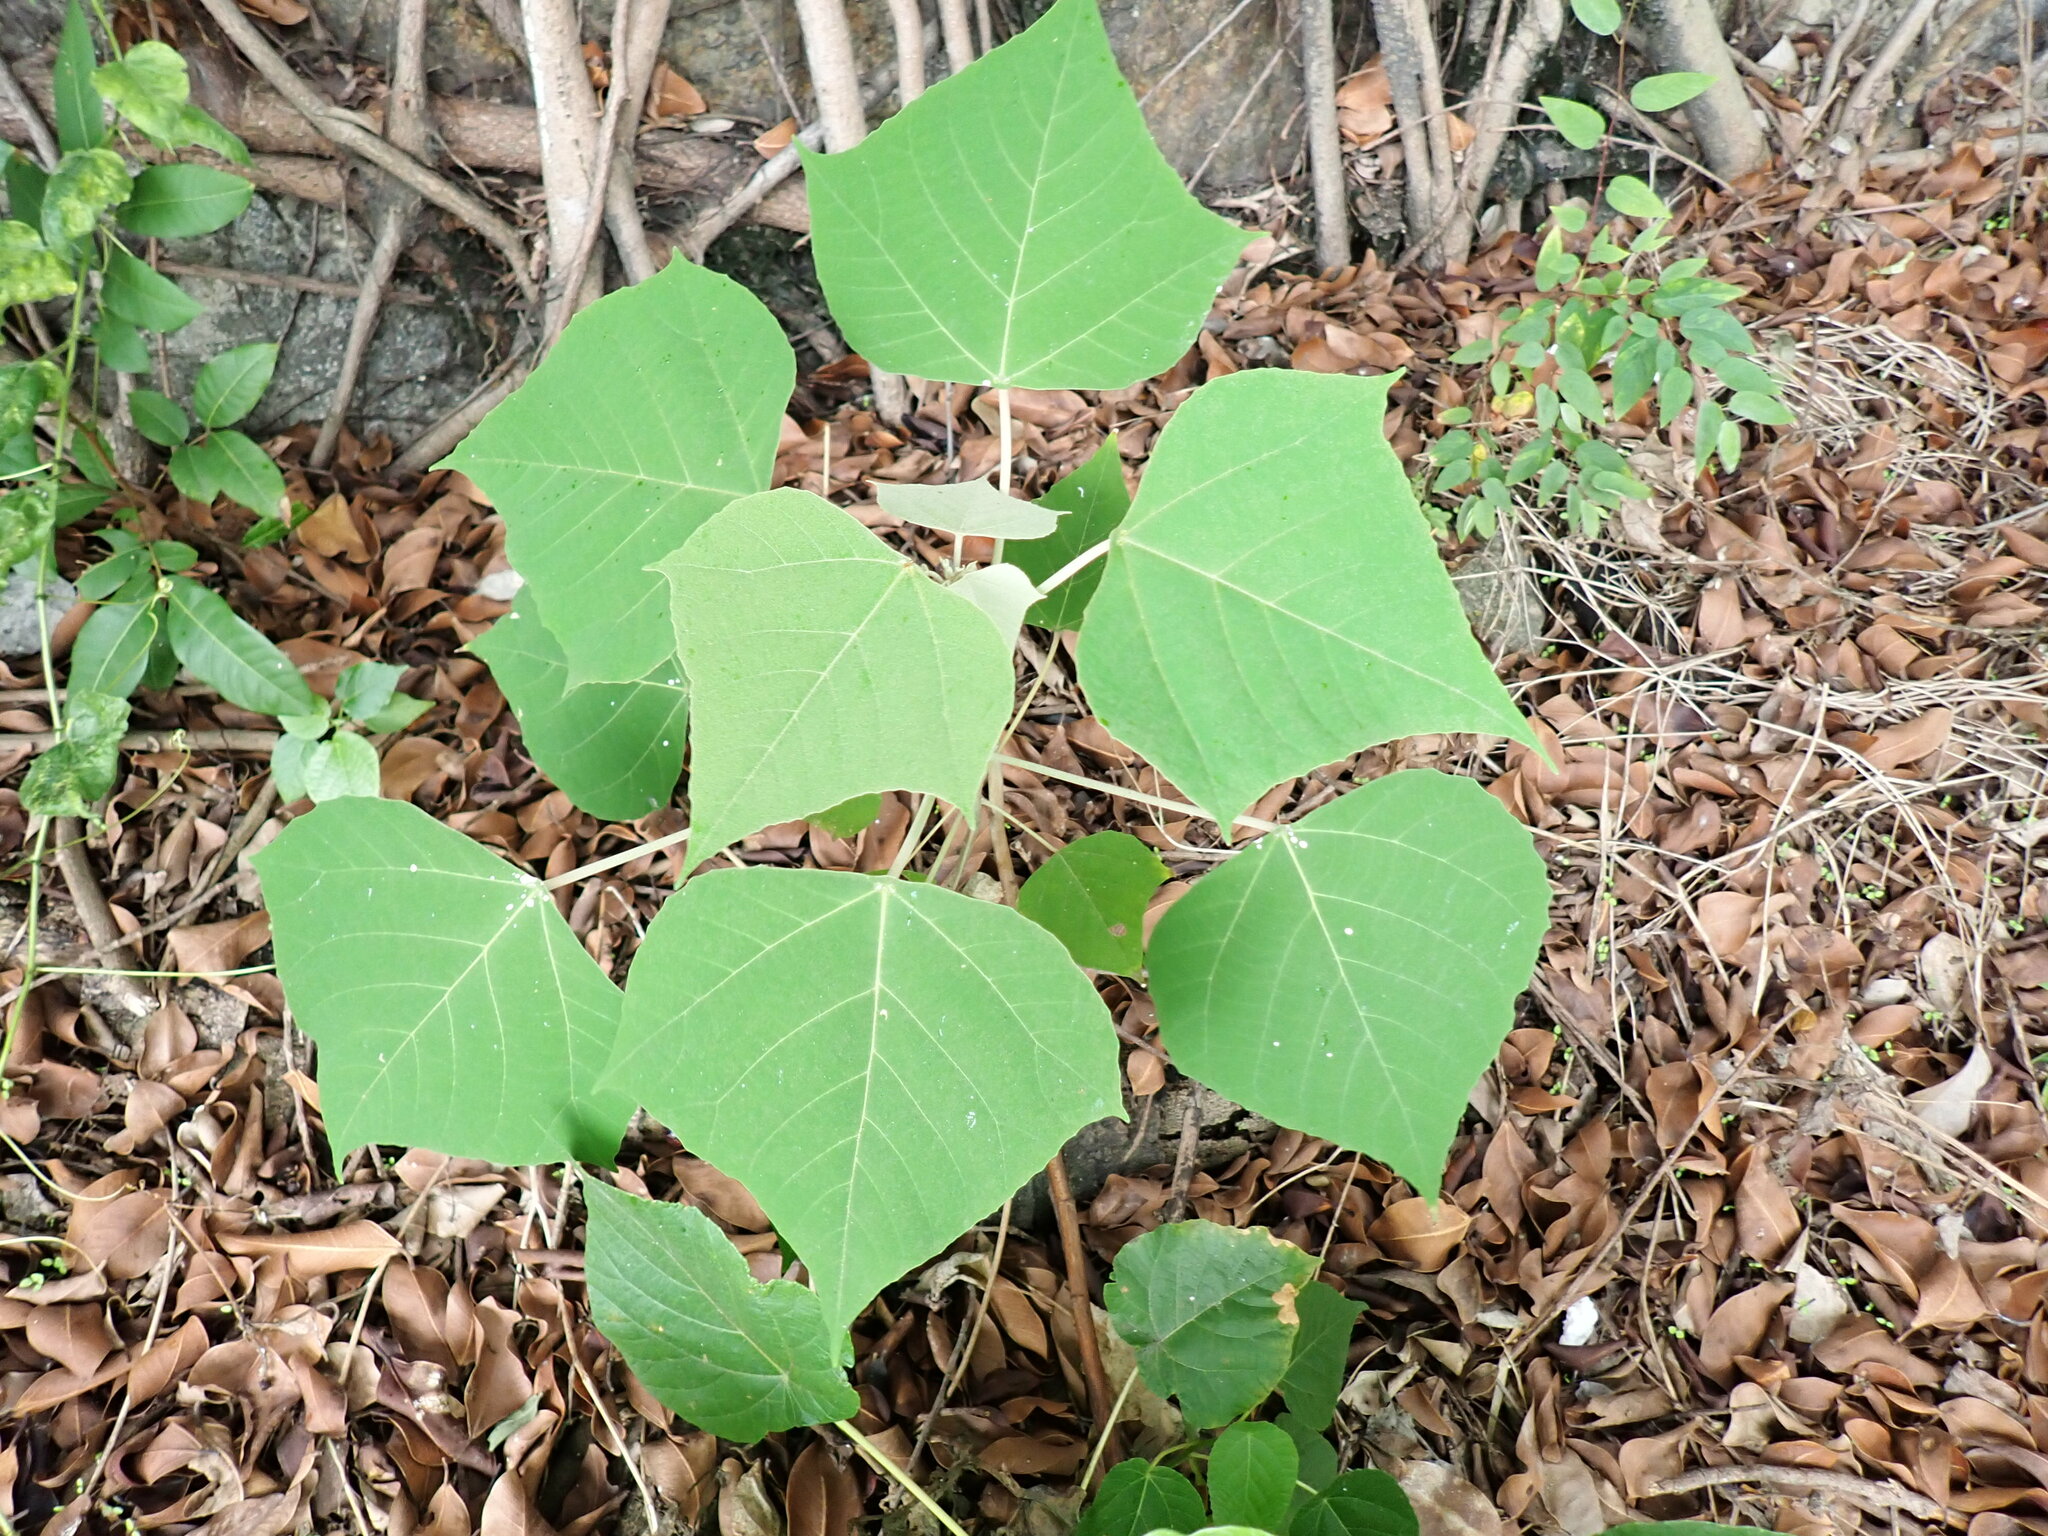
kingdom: Plantae
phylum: Tracheophyta
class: Magnoliopsida
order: Malpighiales
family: Euphorbiaceae
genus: Mallotus
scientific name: Mallotus paniculatus
